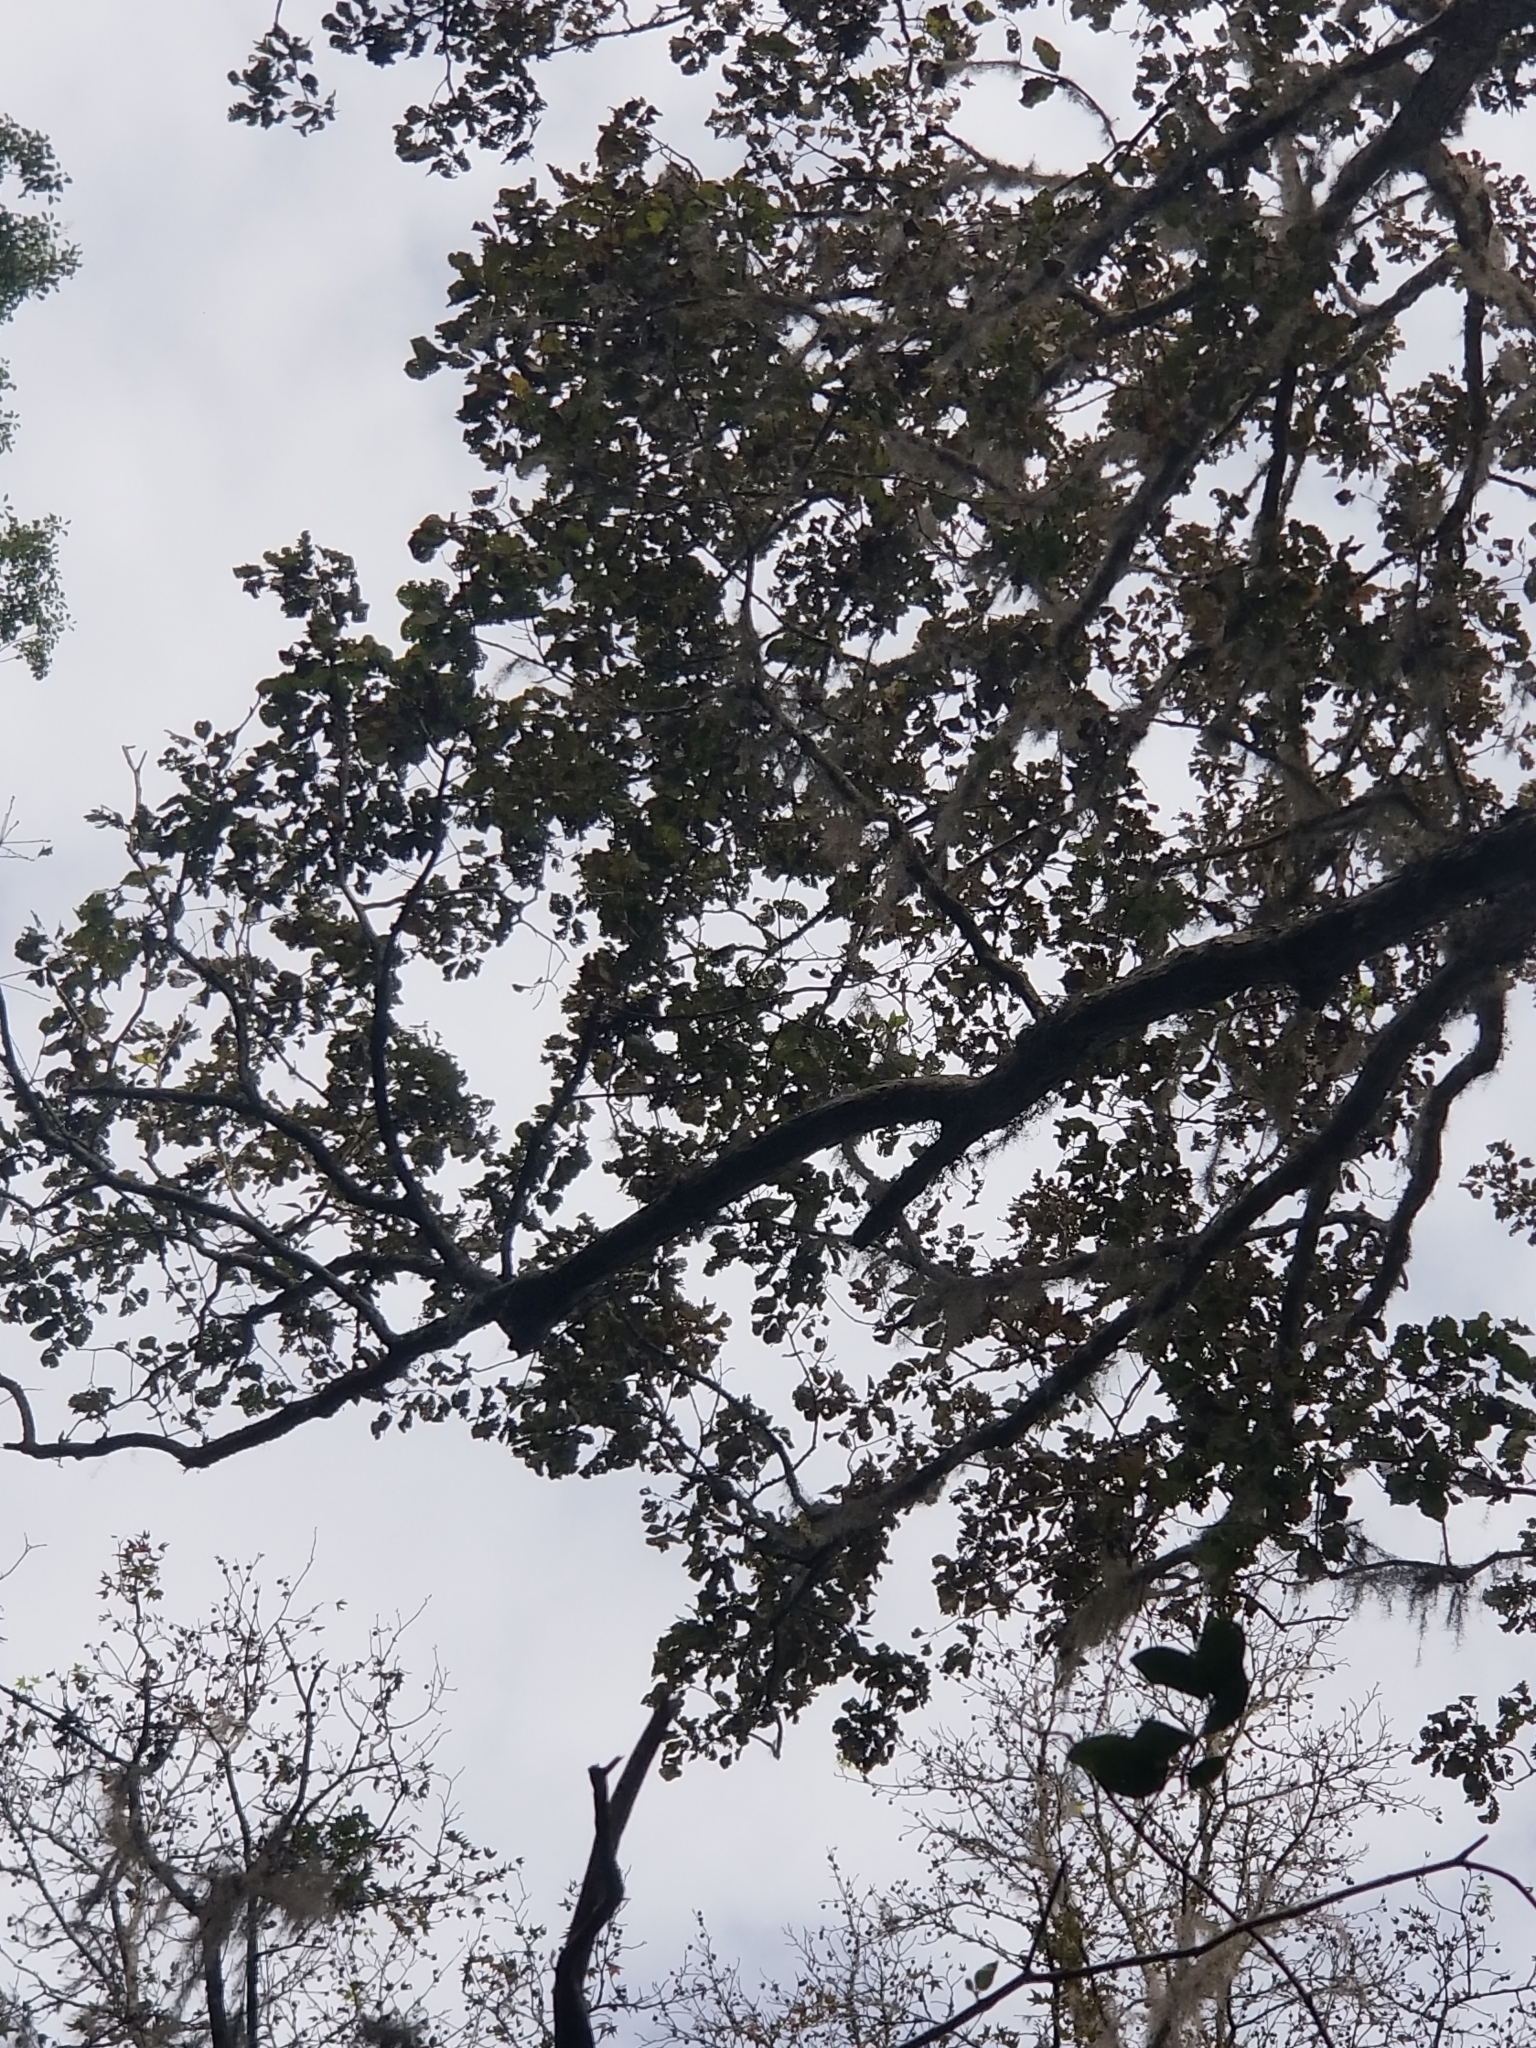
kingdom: Plantae
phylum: Tracheophyta
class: Magnoliopsida
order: Fagales
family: Fagaceae
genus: Quercus
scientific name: Quercus michauxii
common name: Swamp chestnut oak
